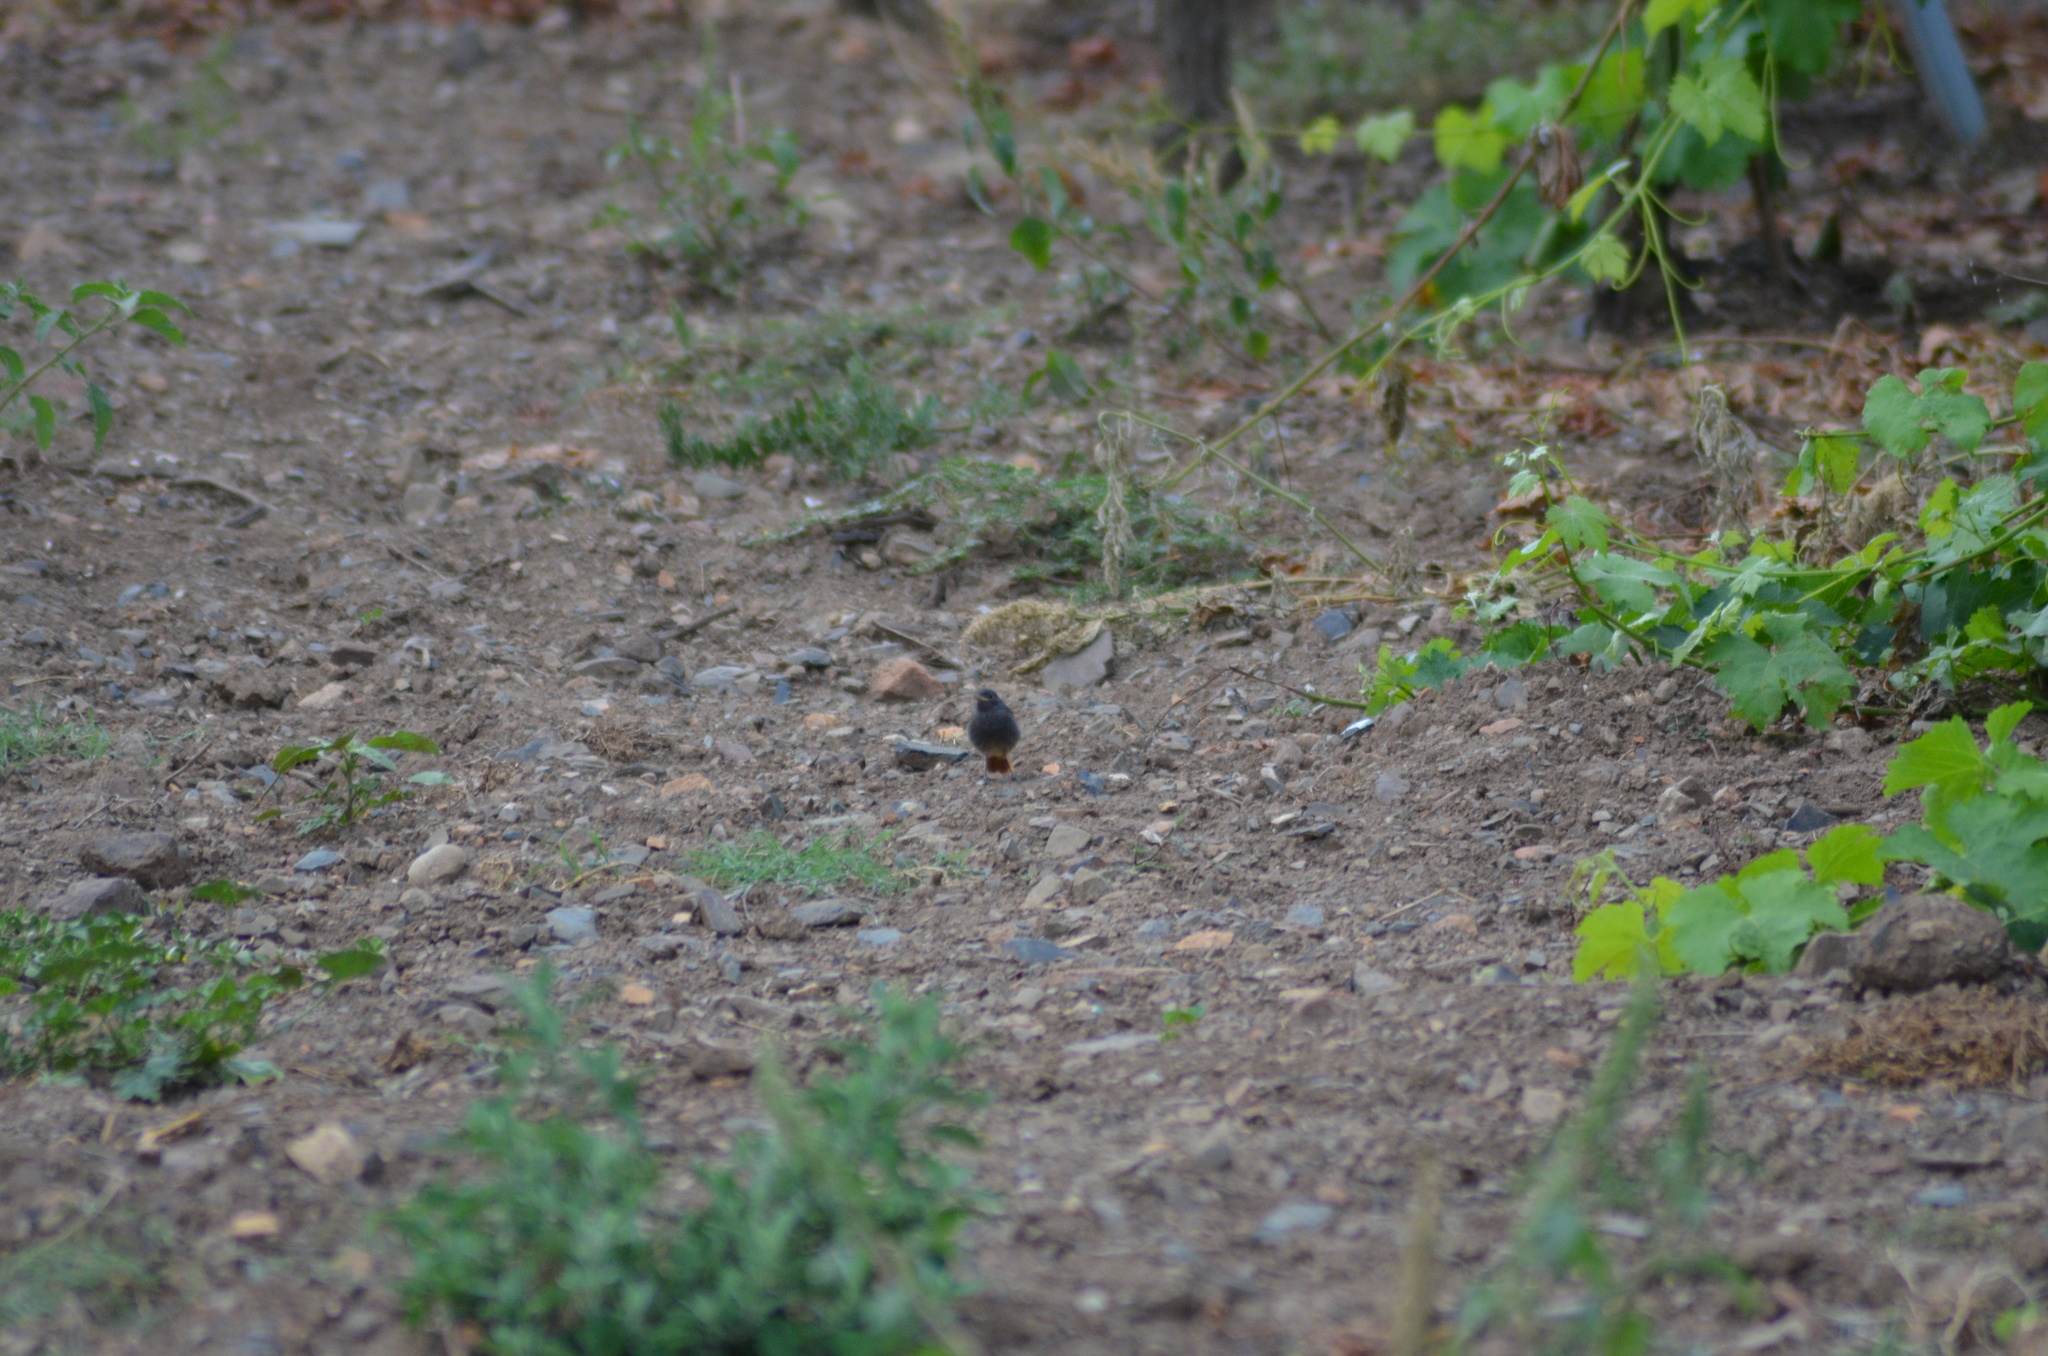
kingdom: Animalia
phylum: Chordata
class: Aves
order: Passeriformes
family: Muscicapidae
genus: Phoenicurus
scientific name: Phoenicurus ochruros
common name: Black redstart
